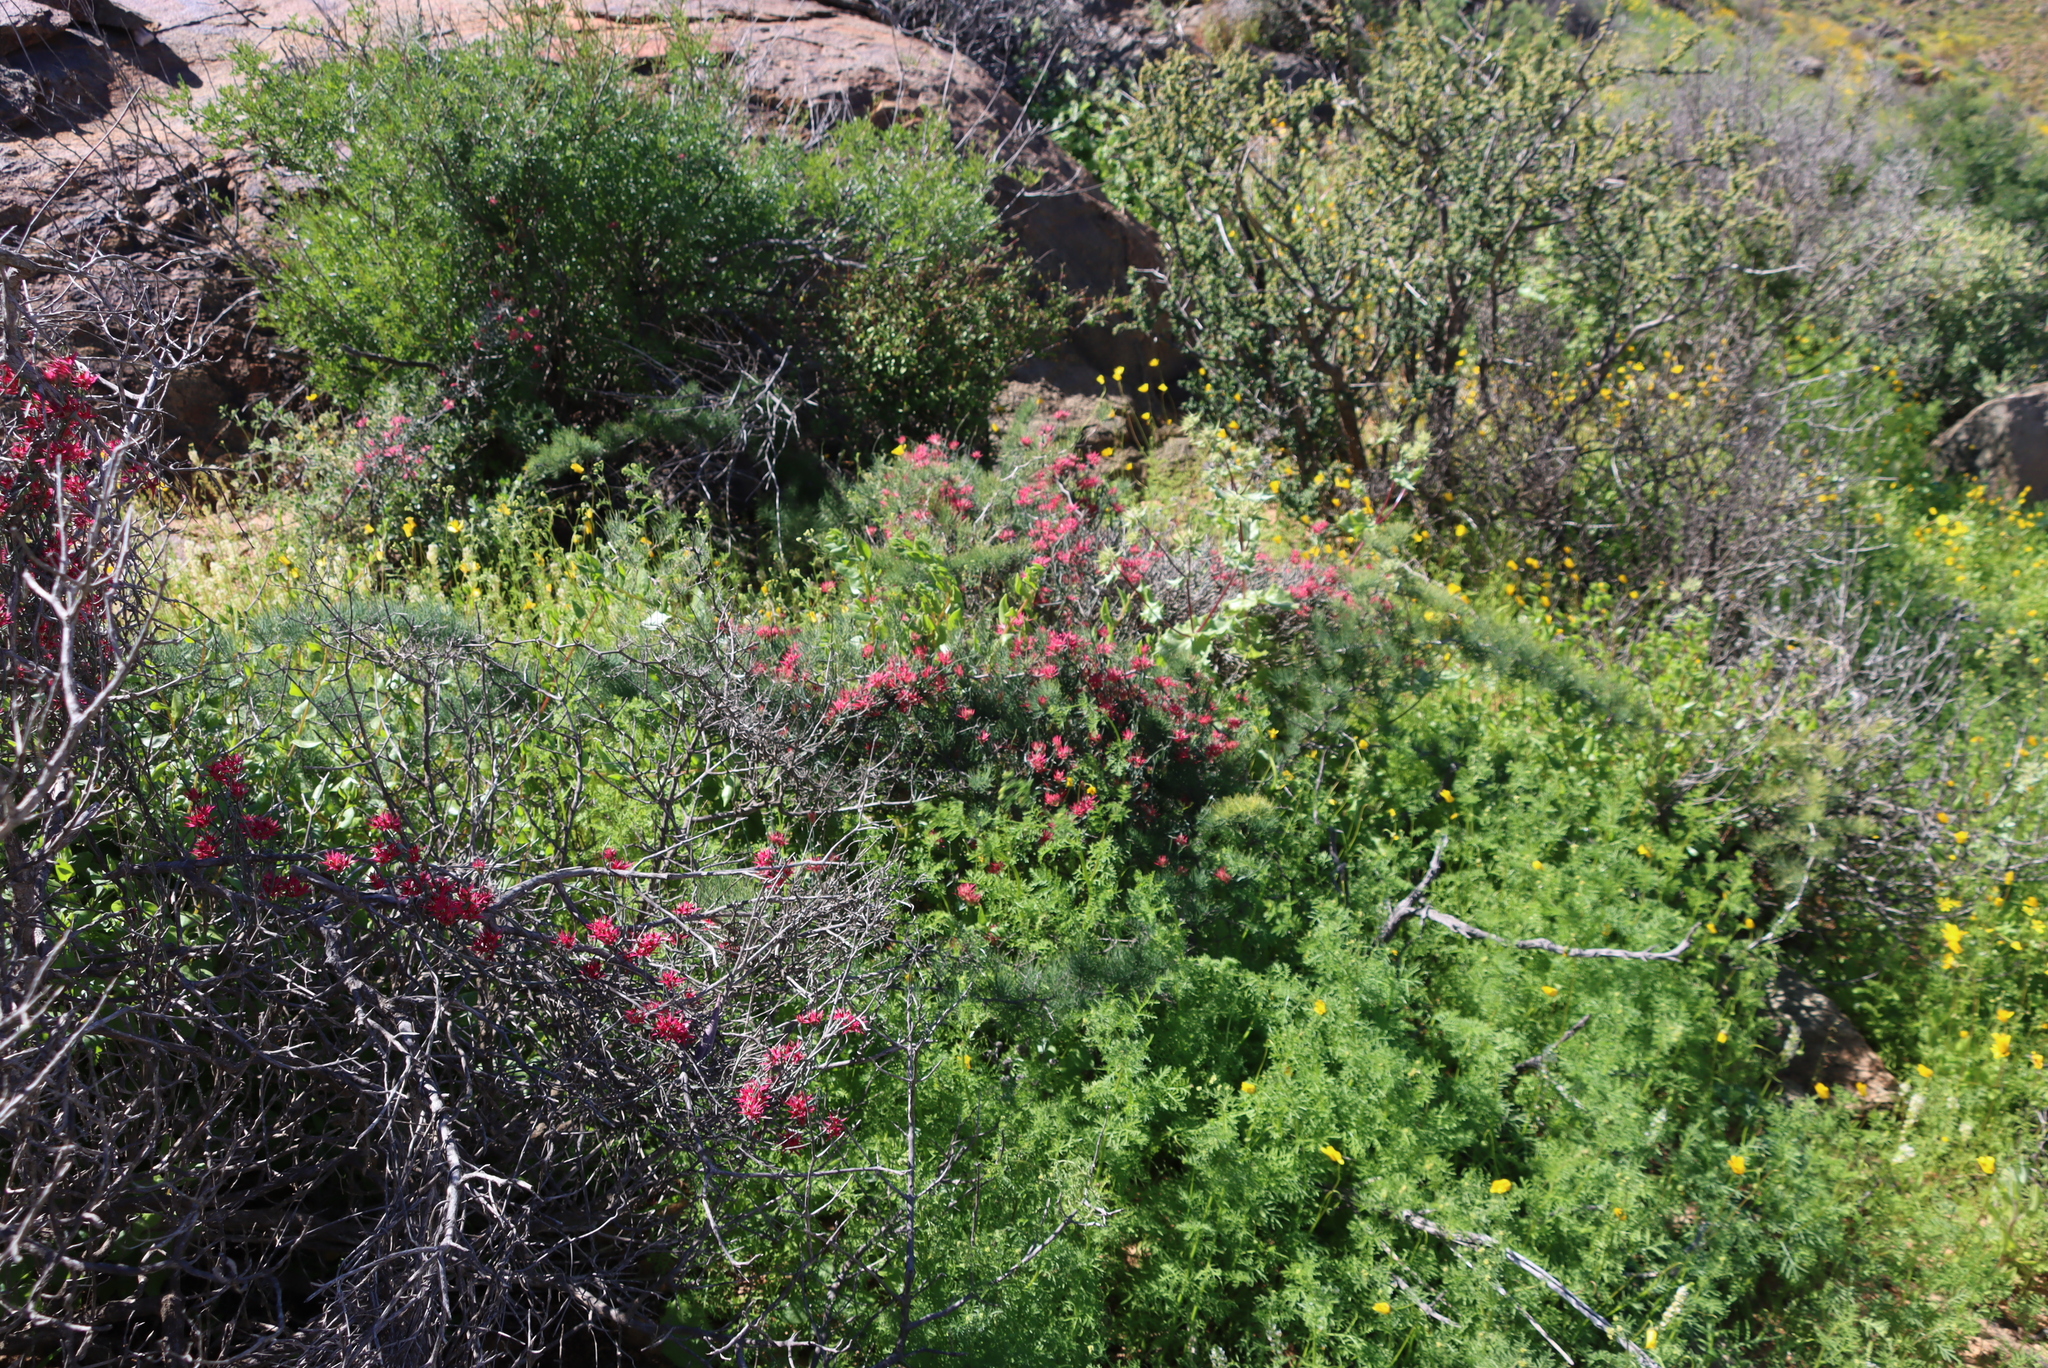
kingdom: Plantae
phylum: Tracheophyta
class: Magnoliopsida
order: Gentianales
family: Apocynaceae
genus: Microloma
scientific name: Microloma calycinum
